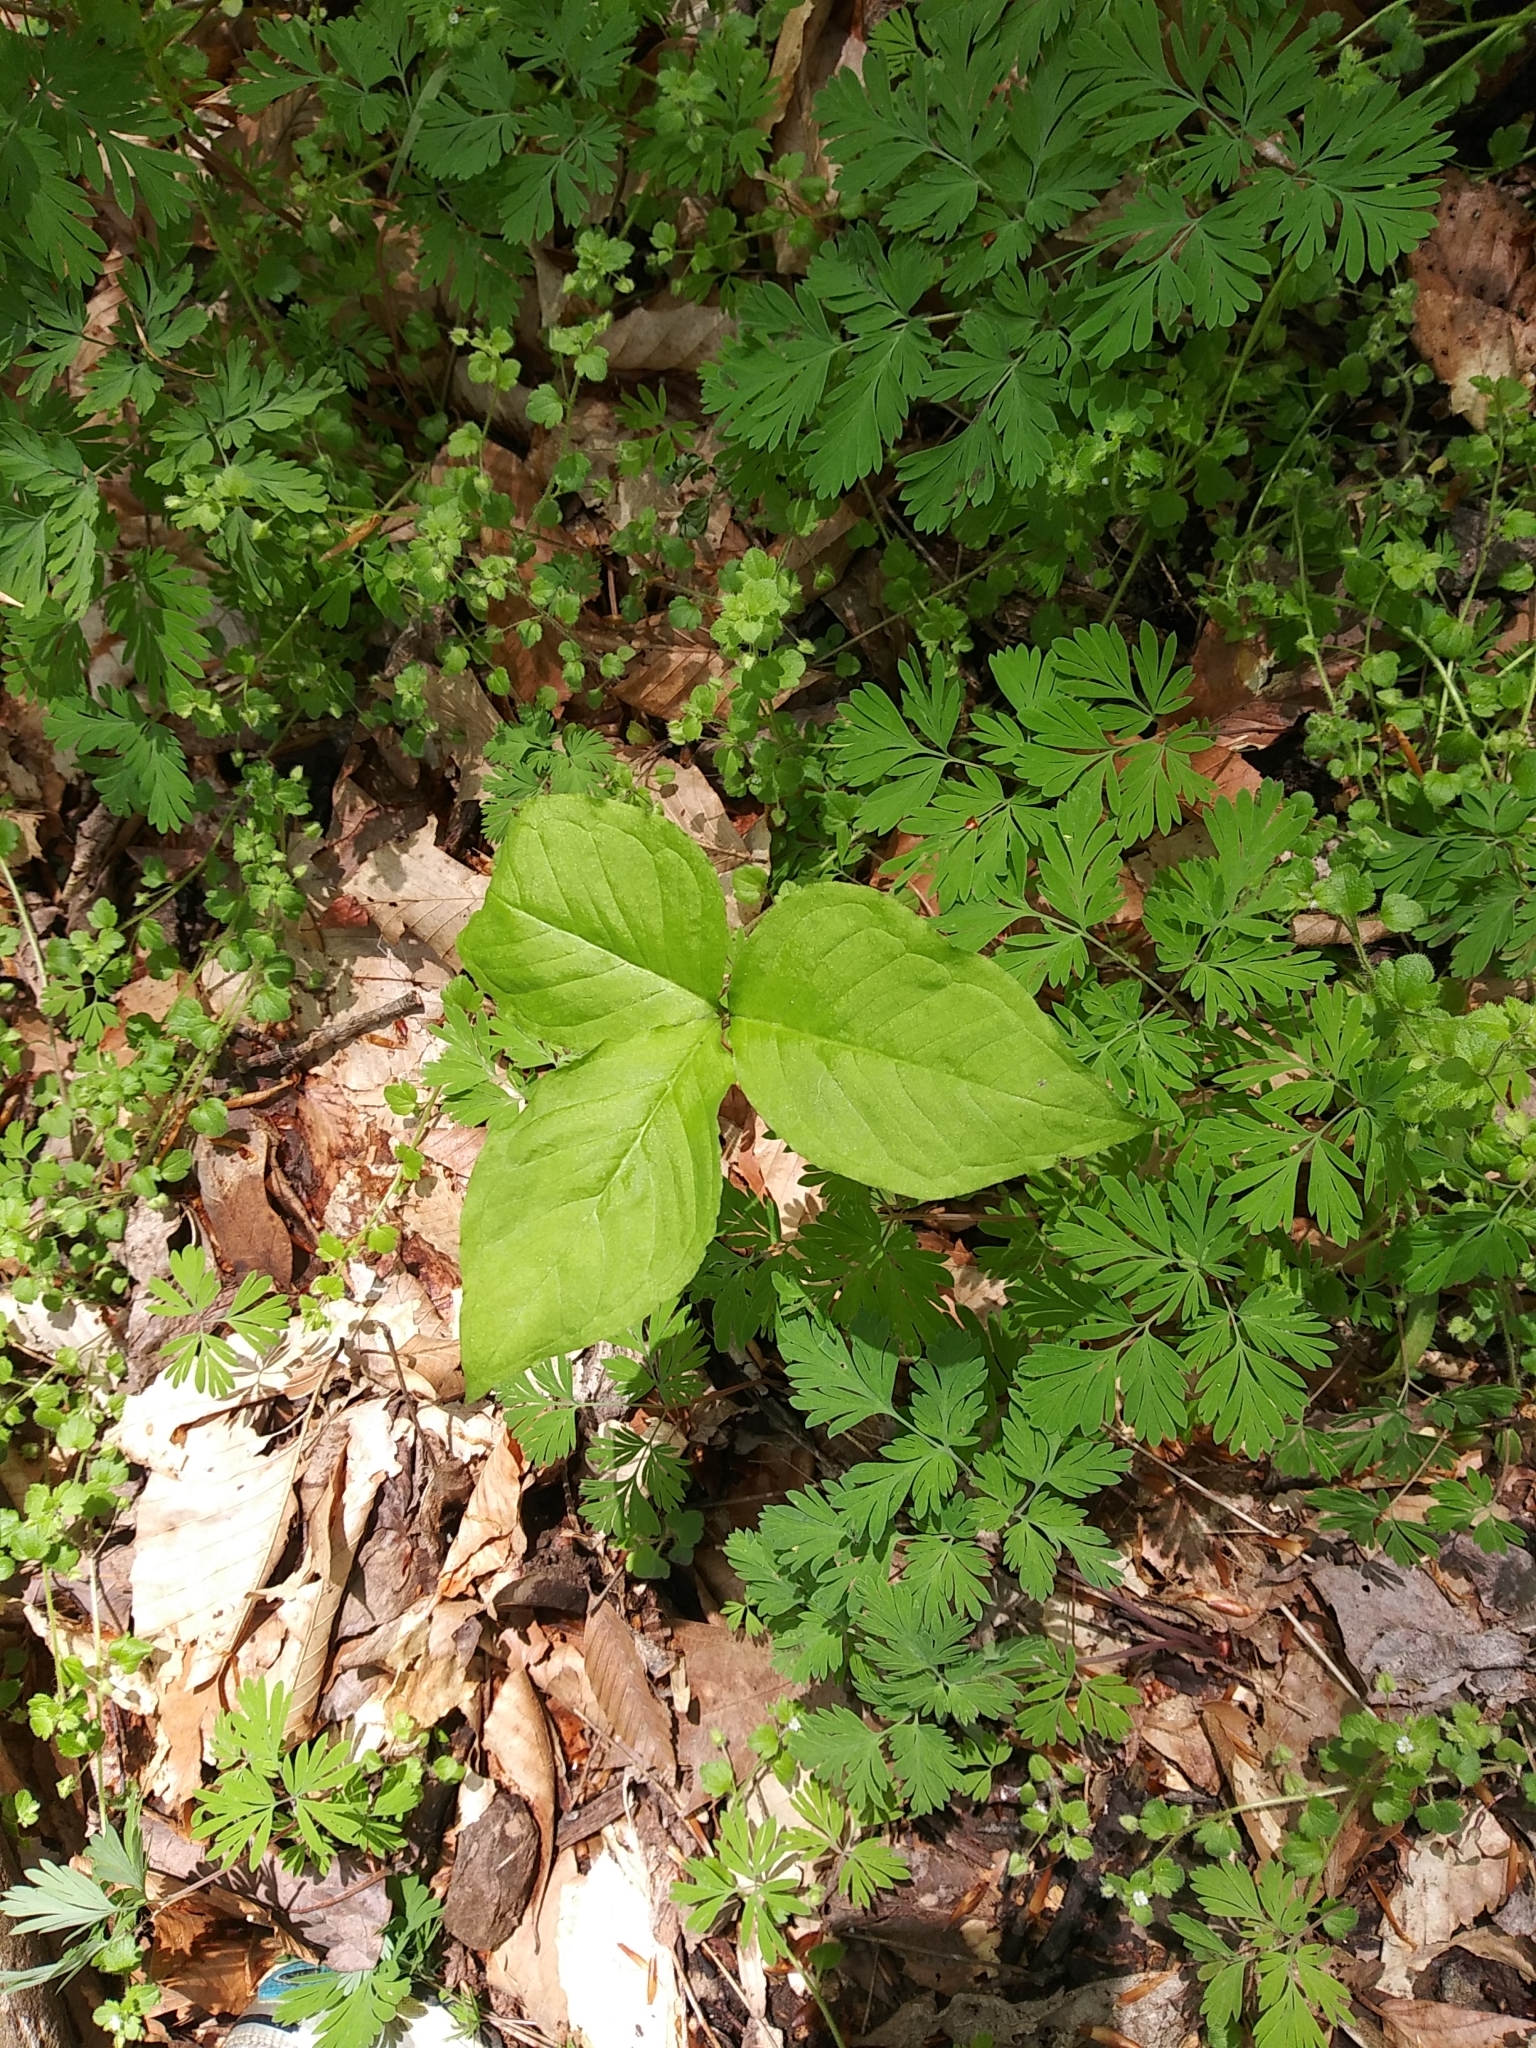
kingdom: Plantae
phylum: Tracheophyta
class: Liliopsida
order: Alismatales
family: Araceae
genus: Arisaema
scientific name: Arisaema triphyllum
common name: Jack-in-the-pulpit
